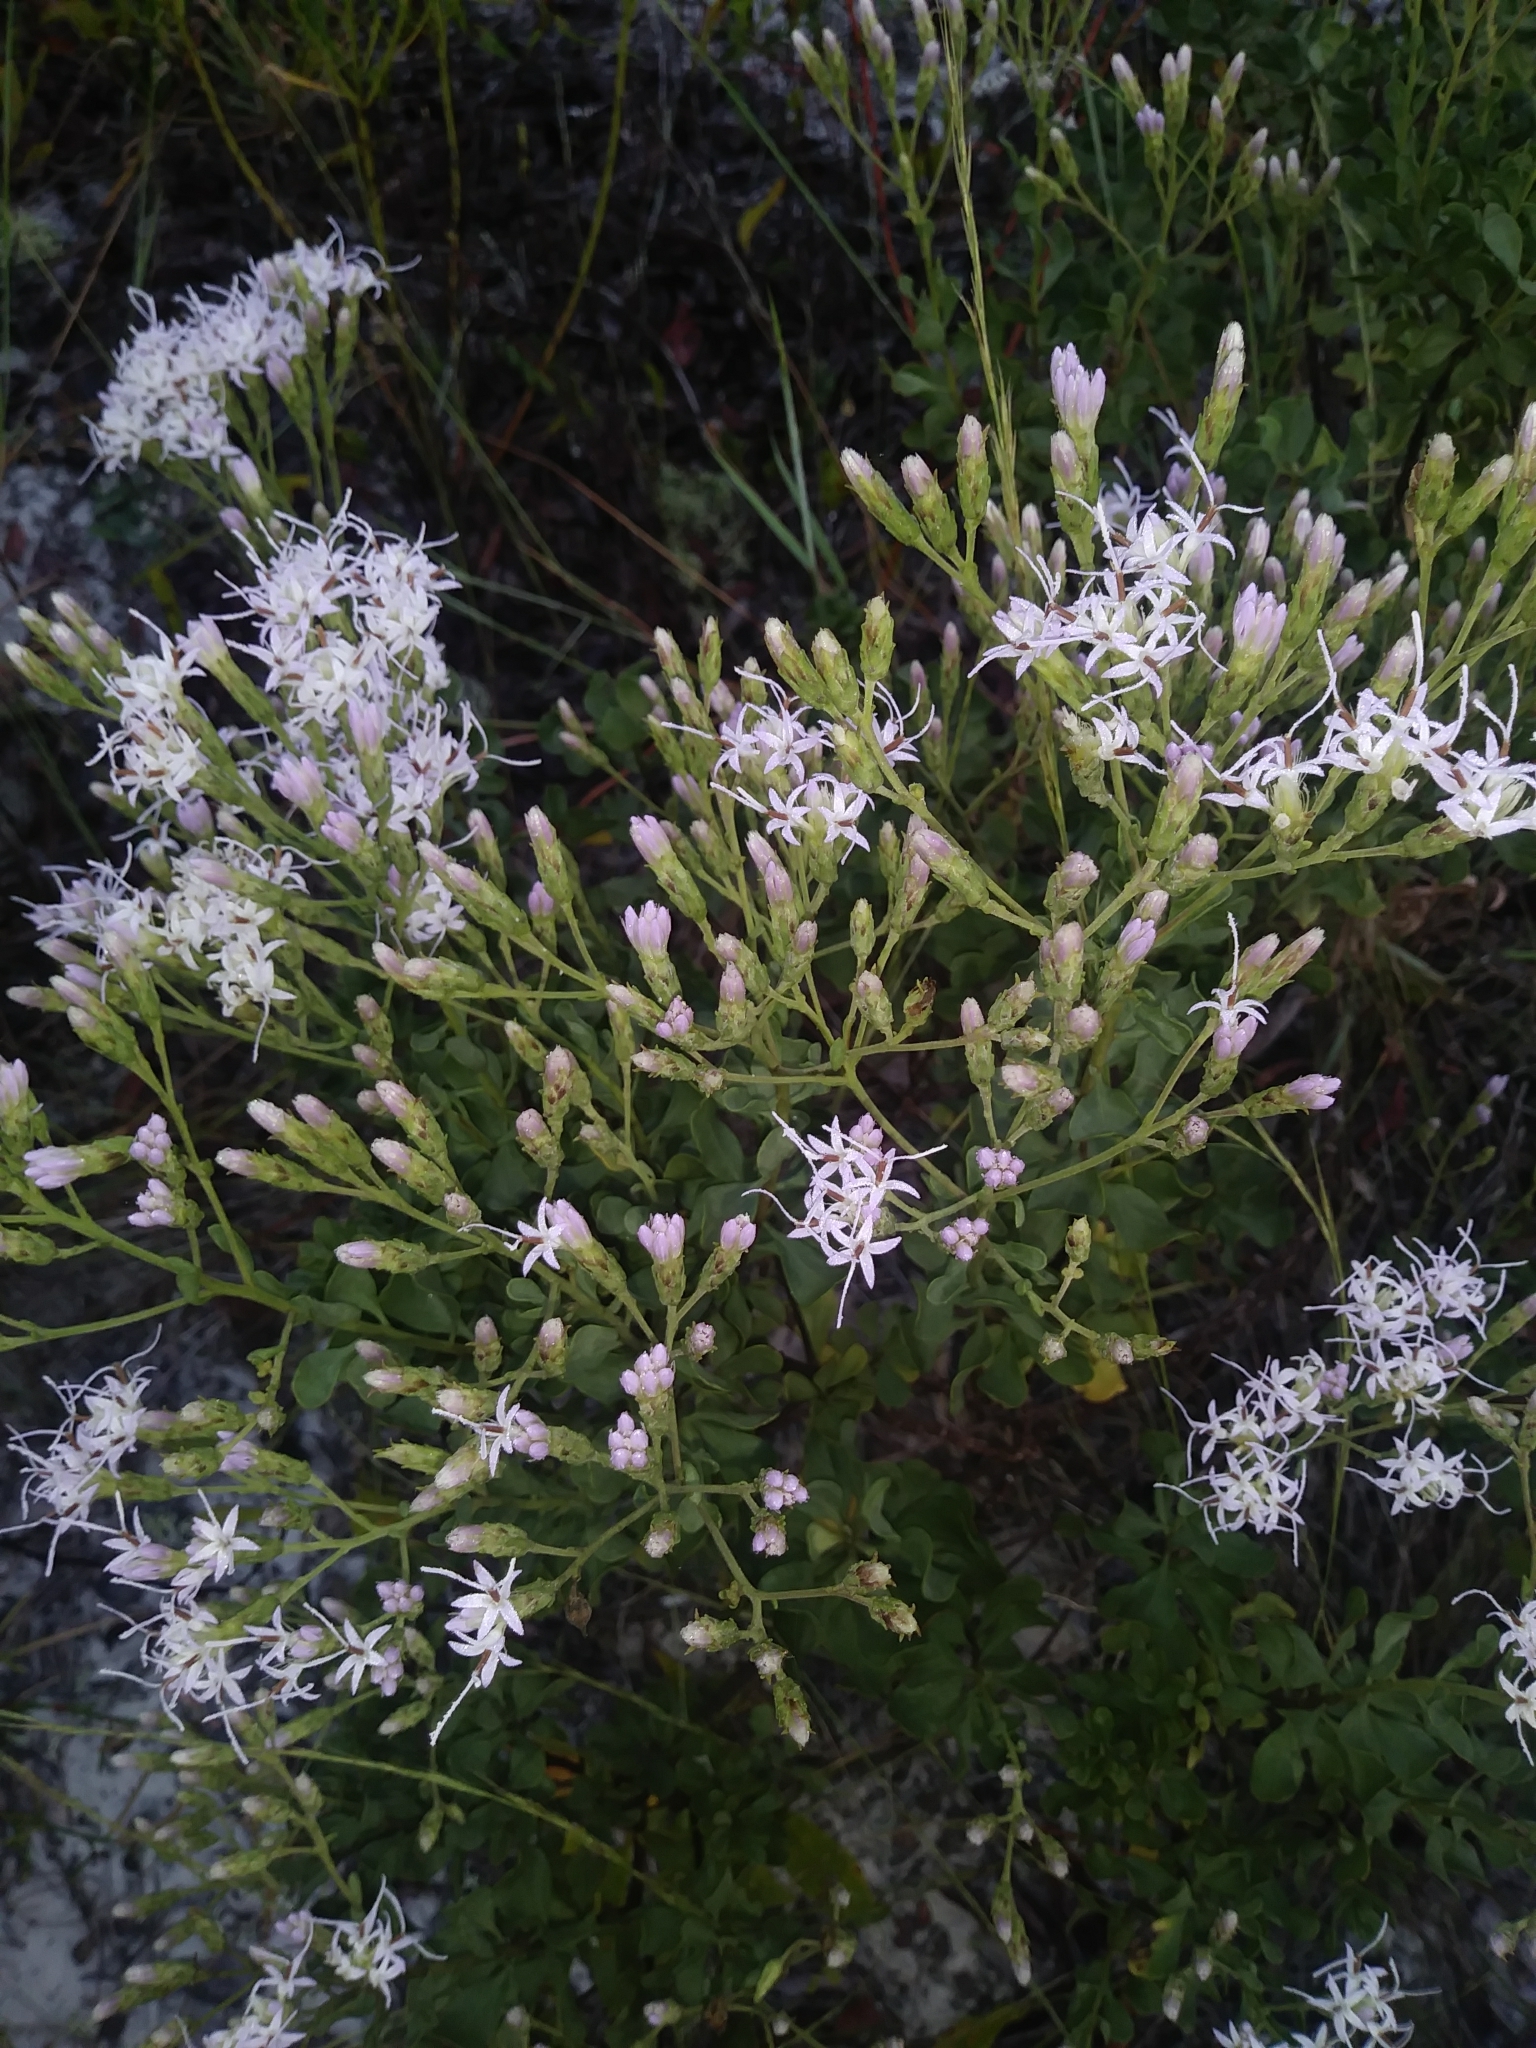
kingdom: Plantae
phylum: Tracheophyta
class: Magnoliopsida
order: Asterales
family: Asteraceae
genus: Garberia
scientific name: Garberia heterophylla
